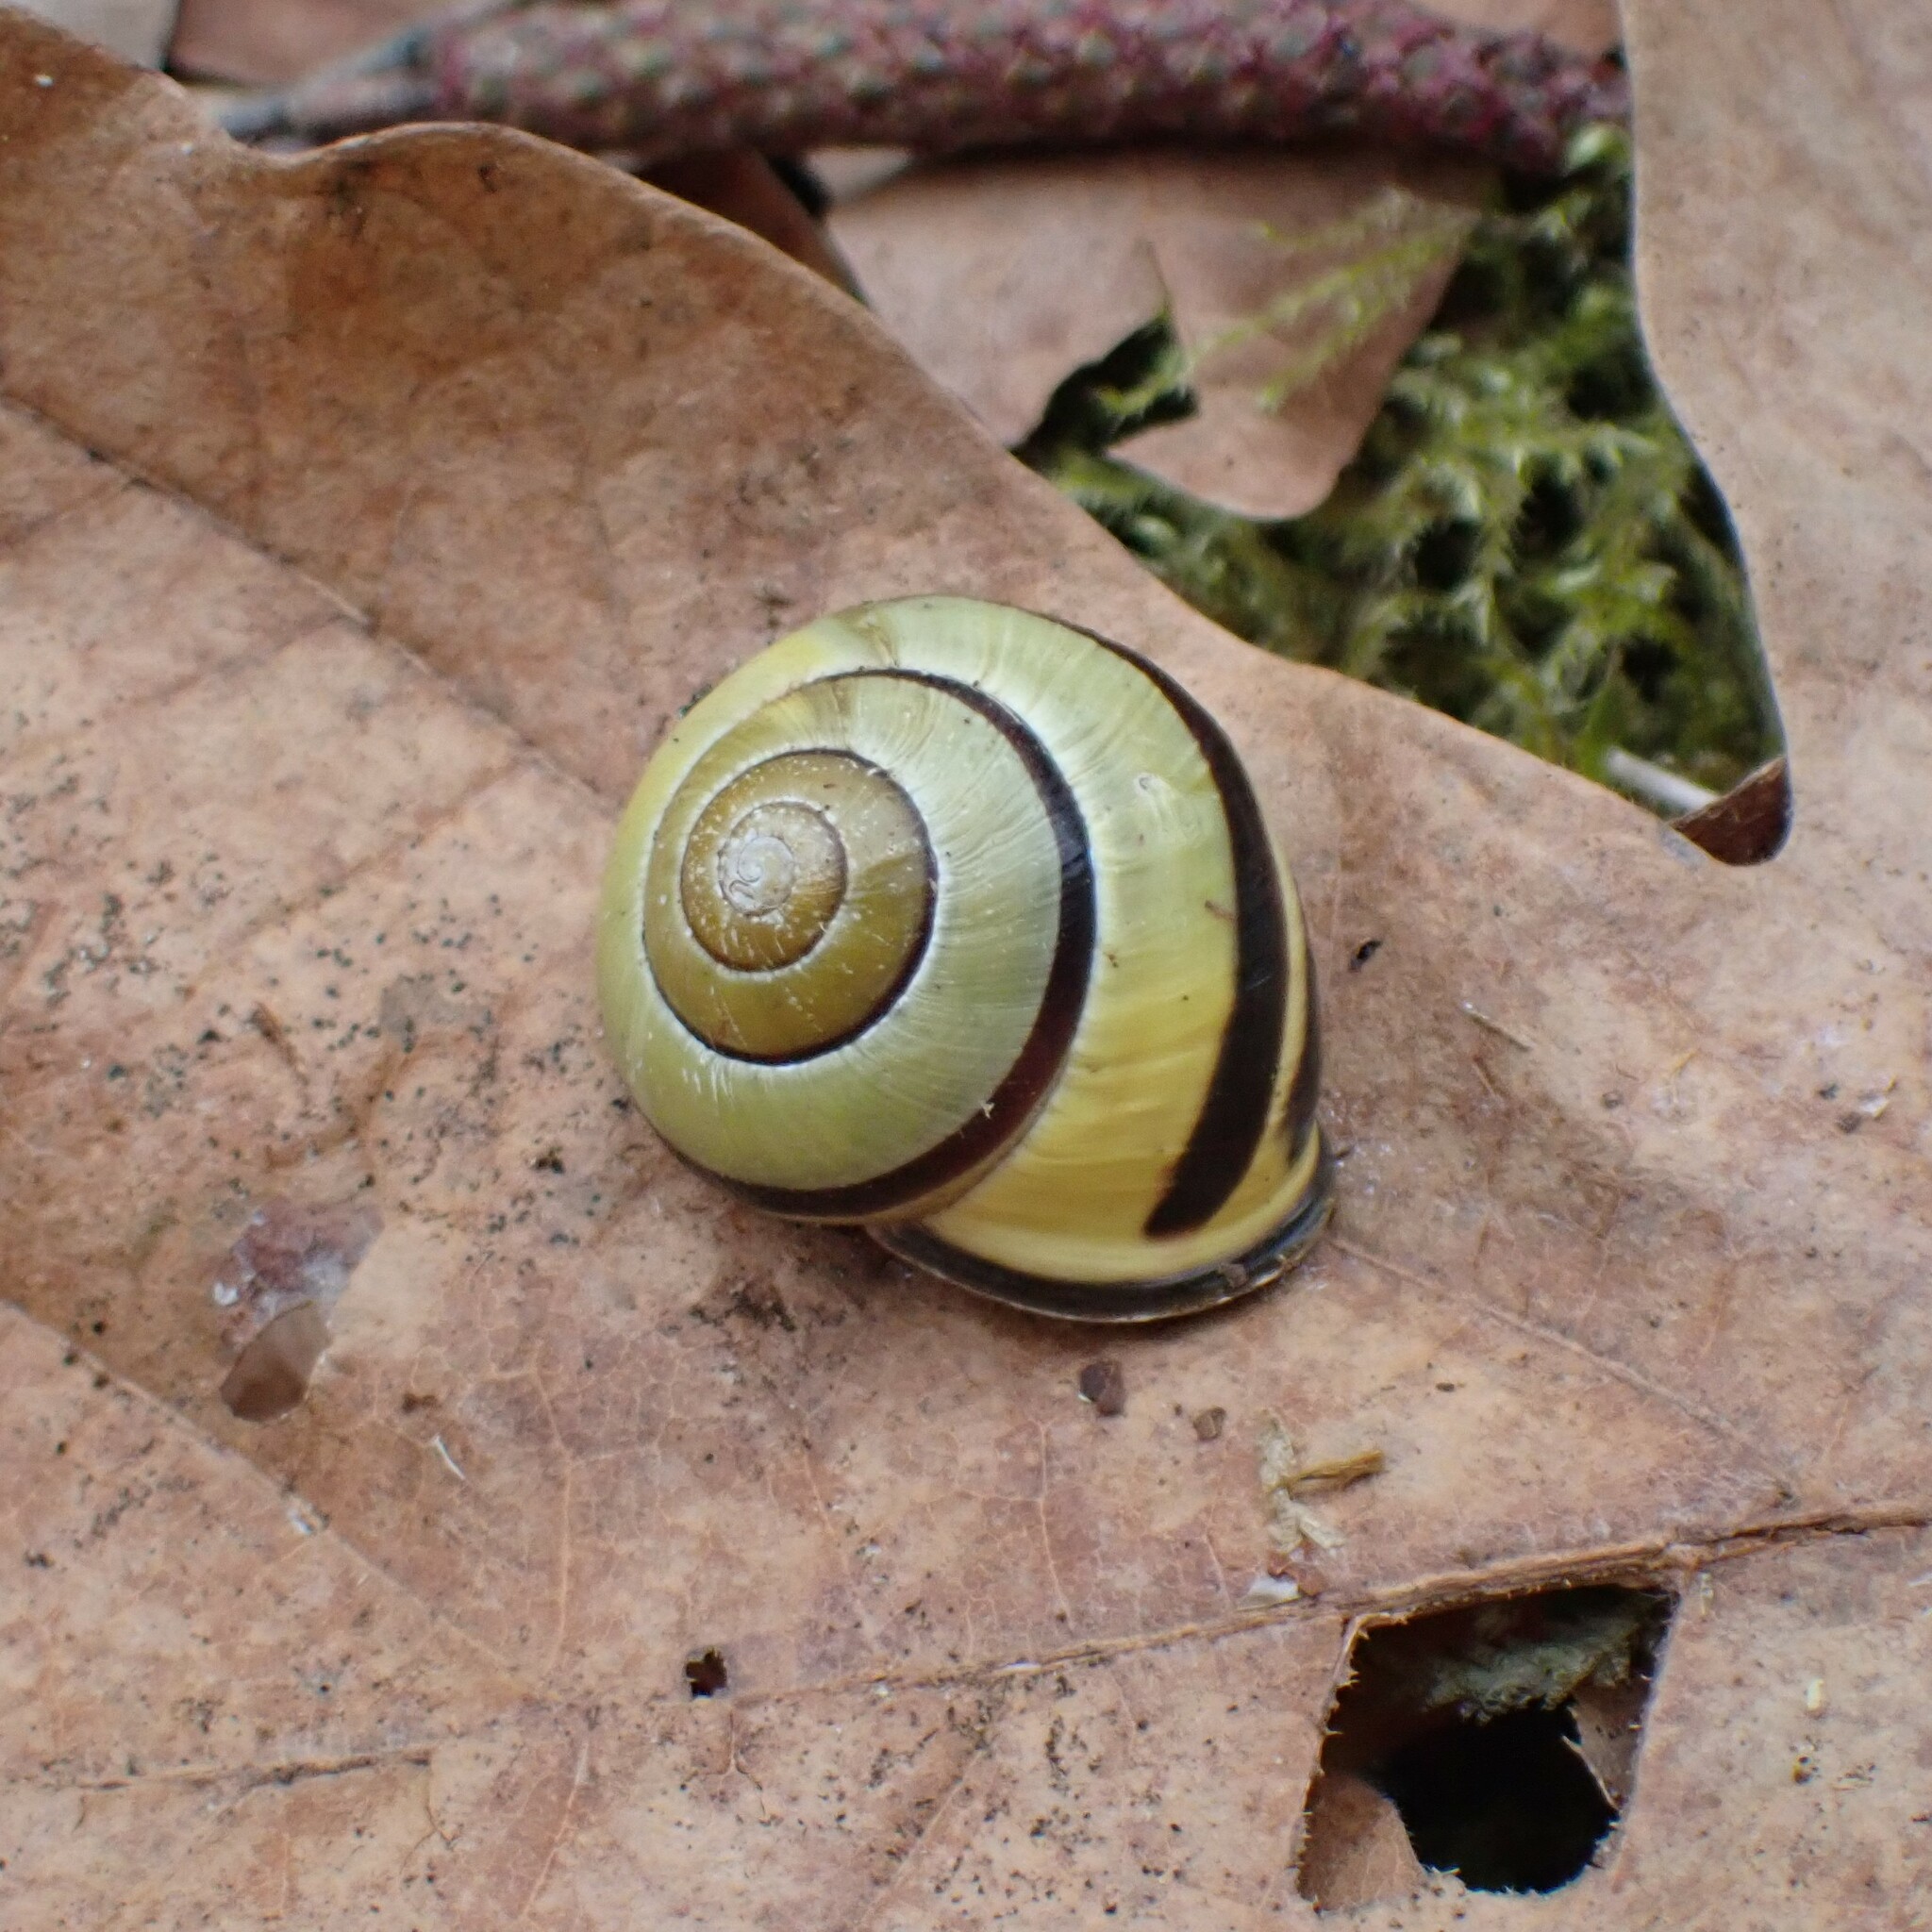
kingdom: Animalia
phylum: Mollusca
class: Gastropoda
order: Stylommatophora
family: Helicidae
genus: Cepaea
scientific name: Cepaea nemoralis
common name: Grovesnail
